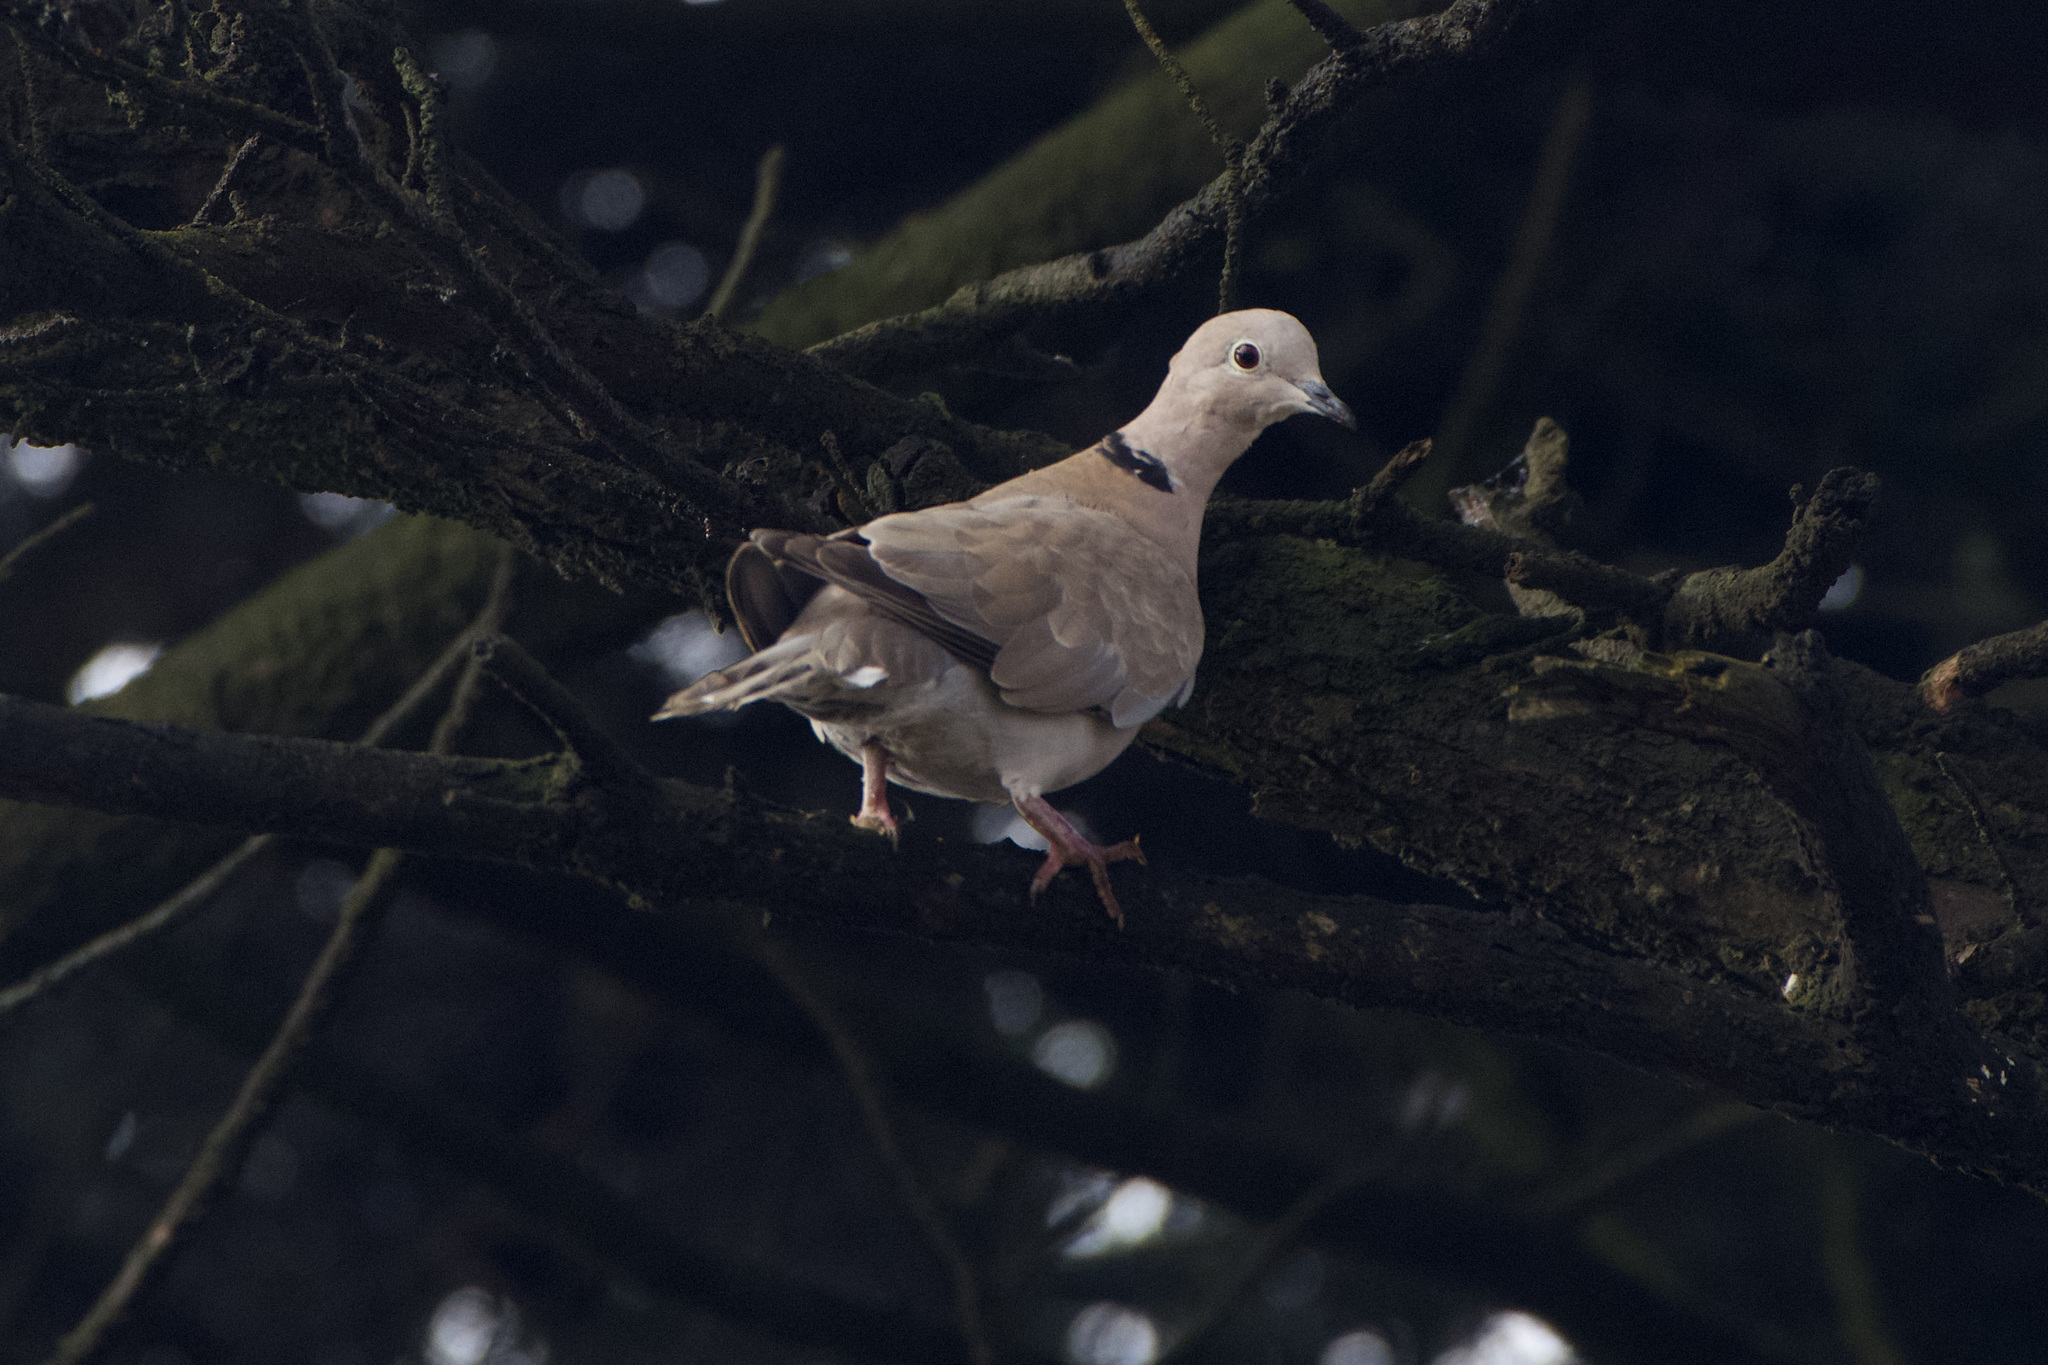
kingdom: Animalia
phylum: Chordata
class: Aves
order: Columbiformes
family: Columbidae
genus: Streptopelia
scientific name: Streptopelia decaocto
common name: Eurasian collared dove
